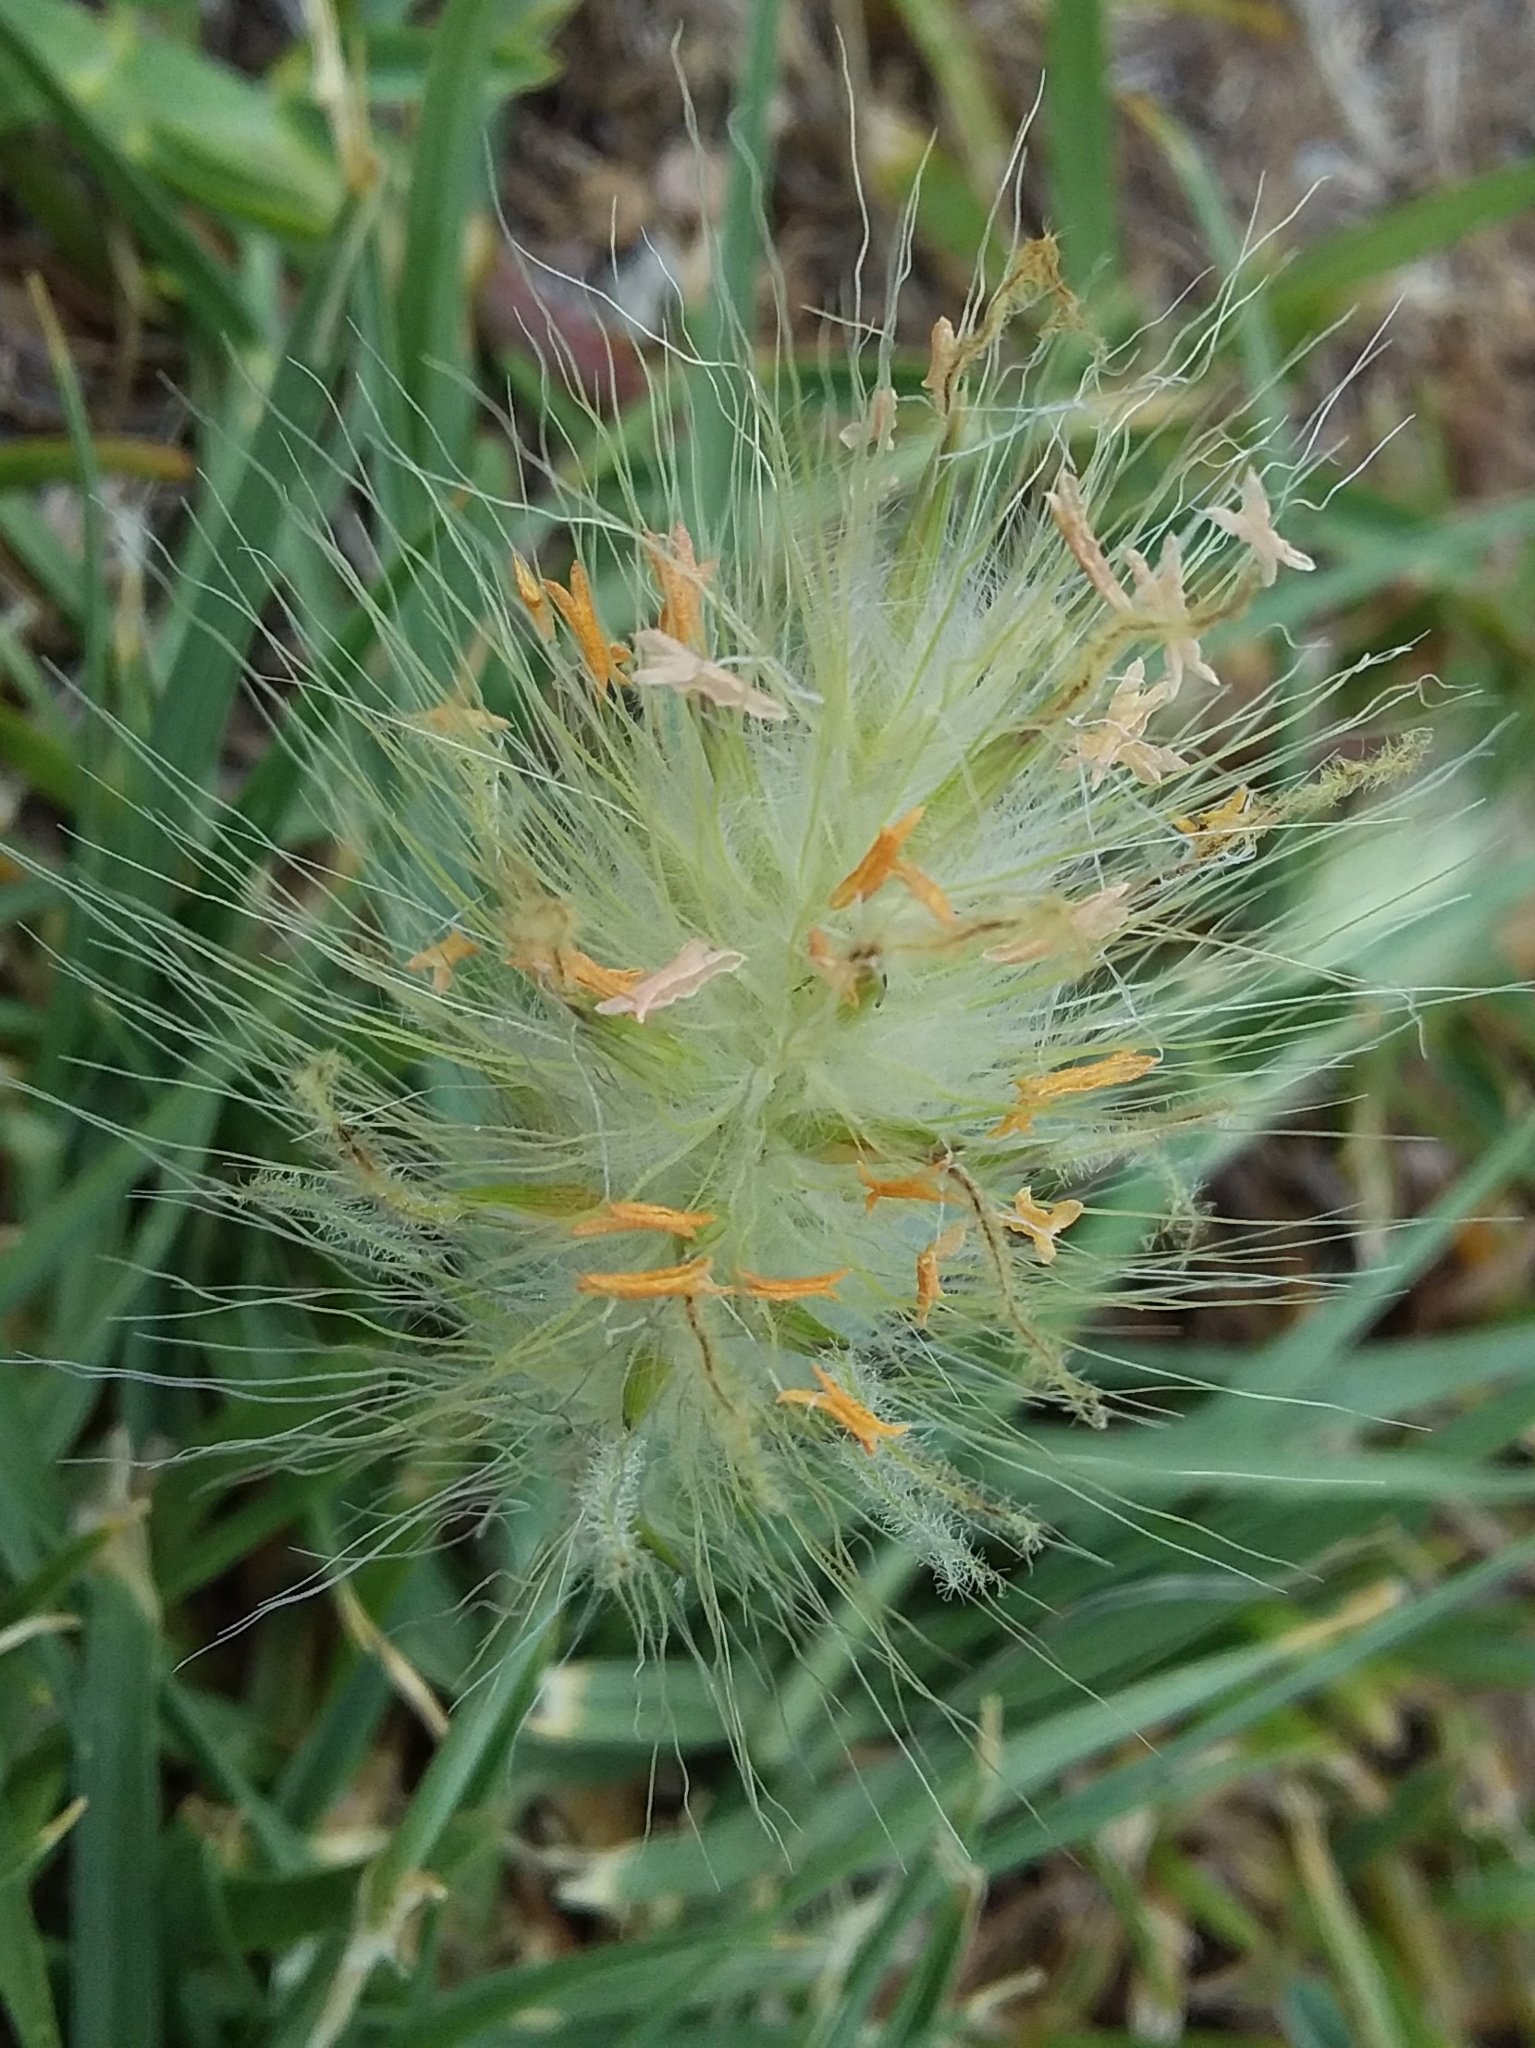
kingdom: Plantae
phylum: Tracheophyta
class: Liliopsida
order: Poales
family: Poaceae
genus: Cenchrus
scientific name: Cenchrus longisetus
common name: Feathertop
